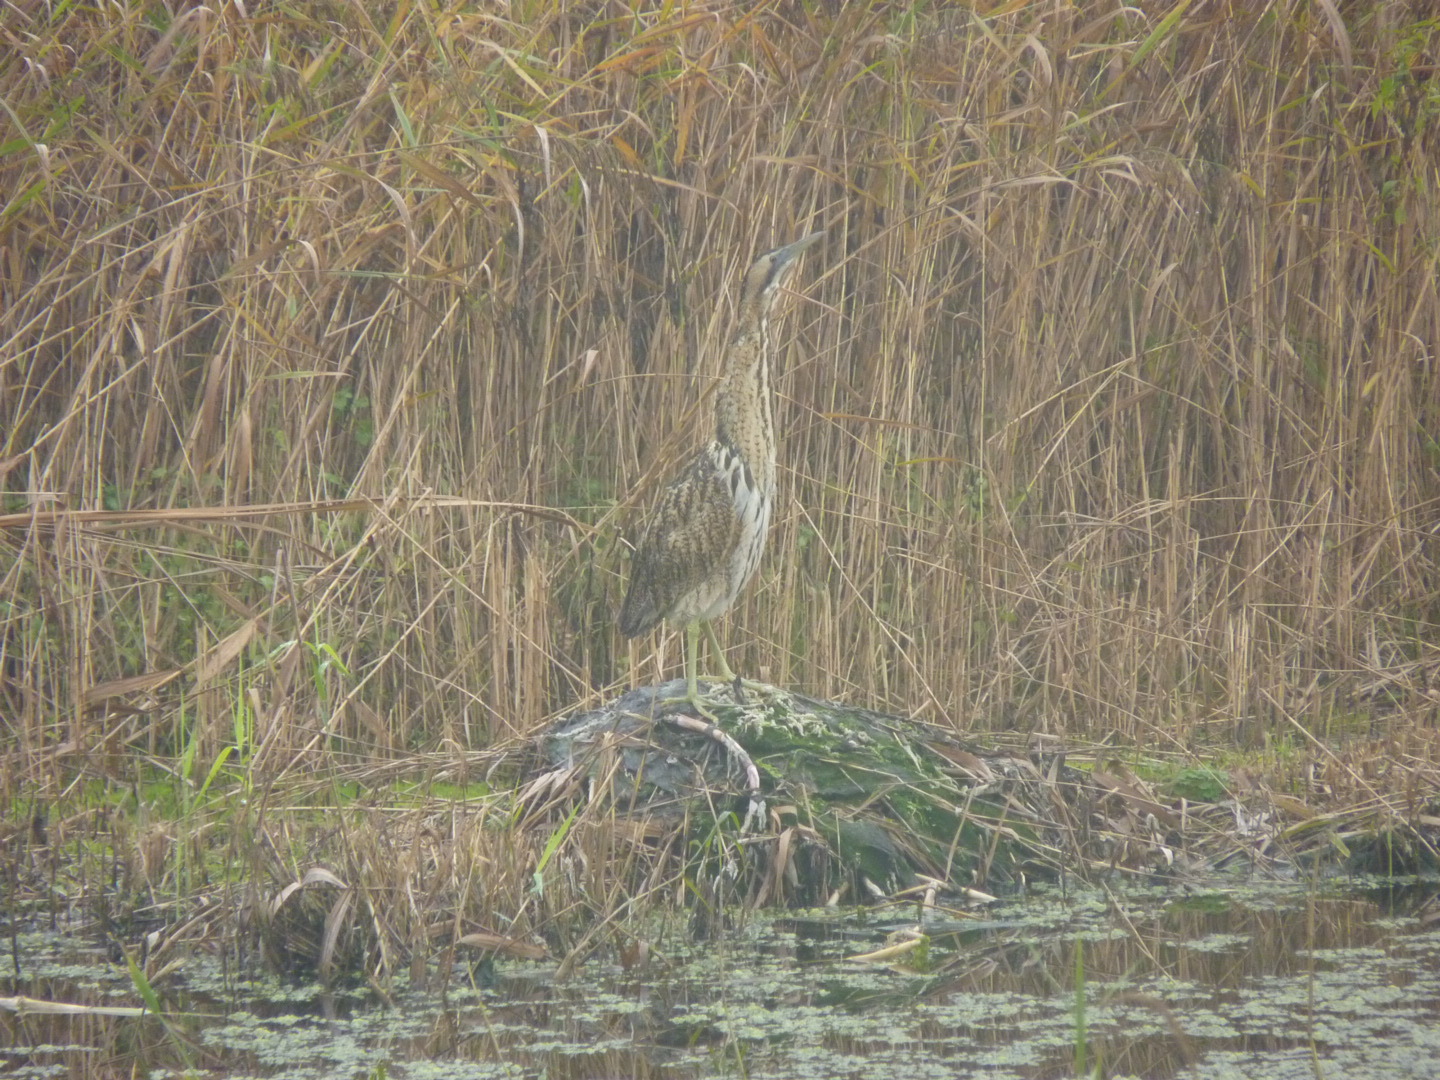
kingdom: Animalia
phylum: Chordata
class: Aves
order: Pelecaniformes
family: Ardeidae
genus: Botaurus
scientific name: Botaurus stellaris
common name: Eurasian bittern
